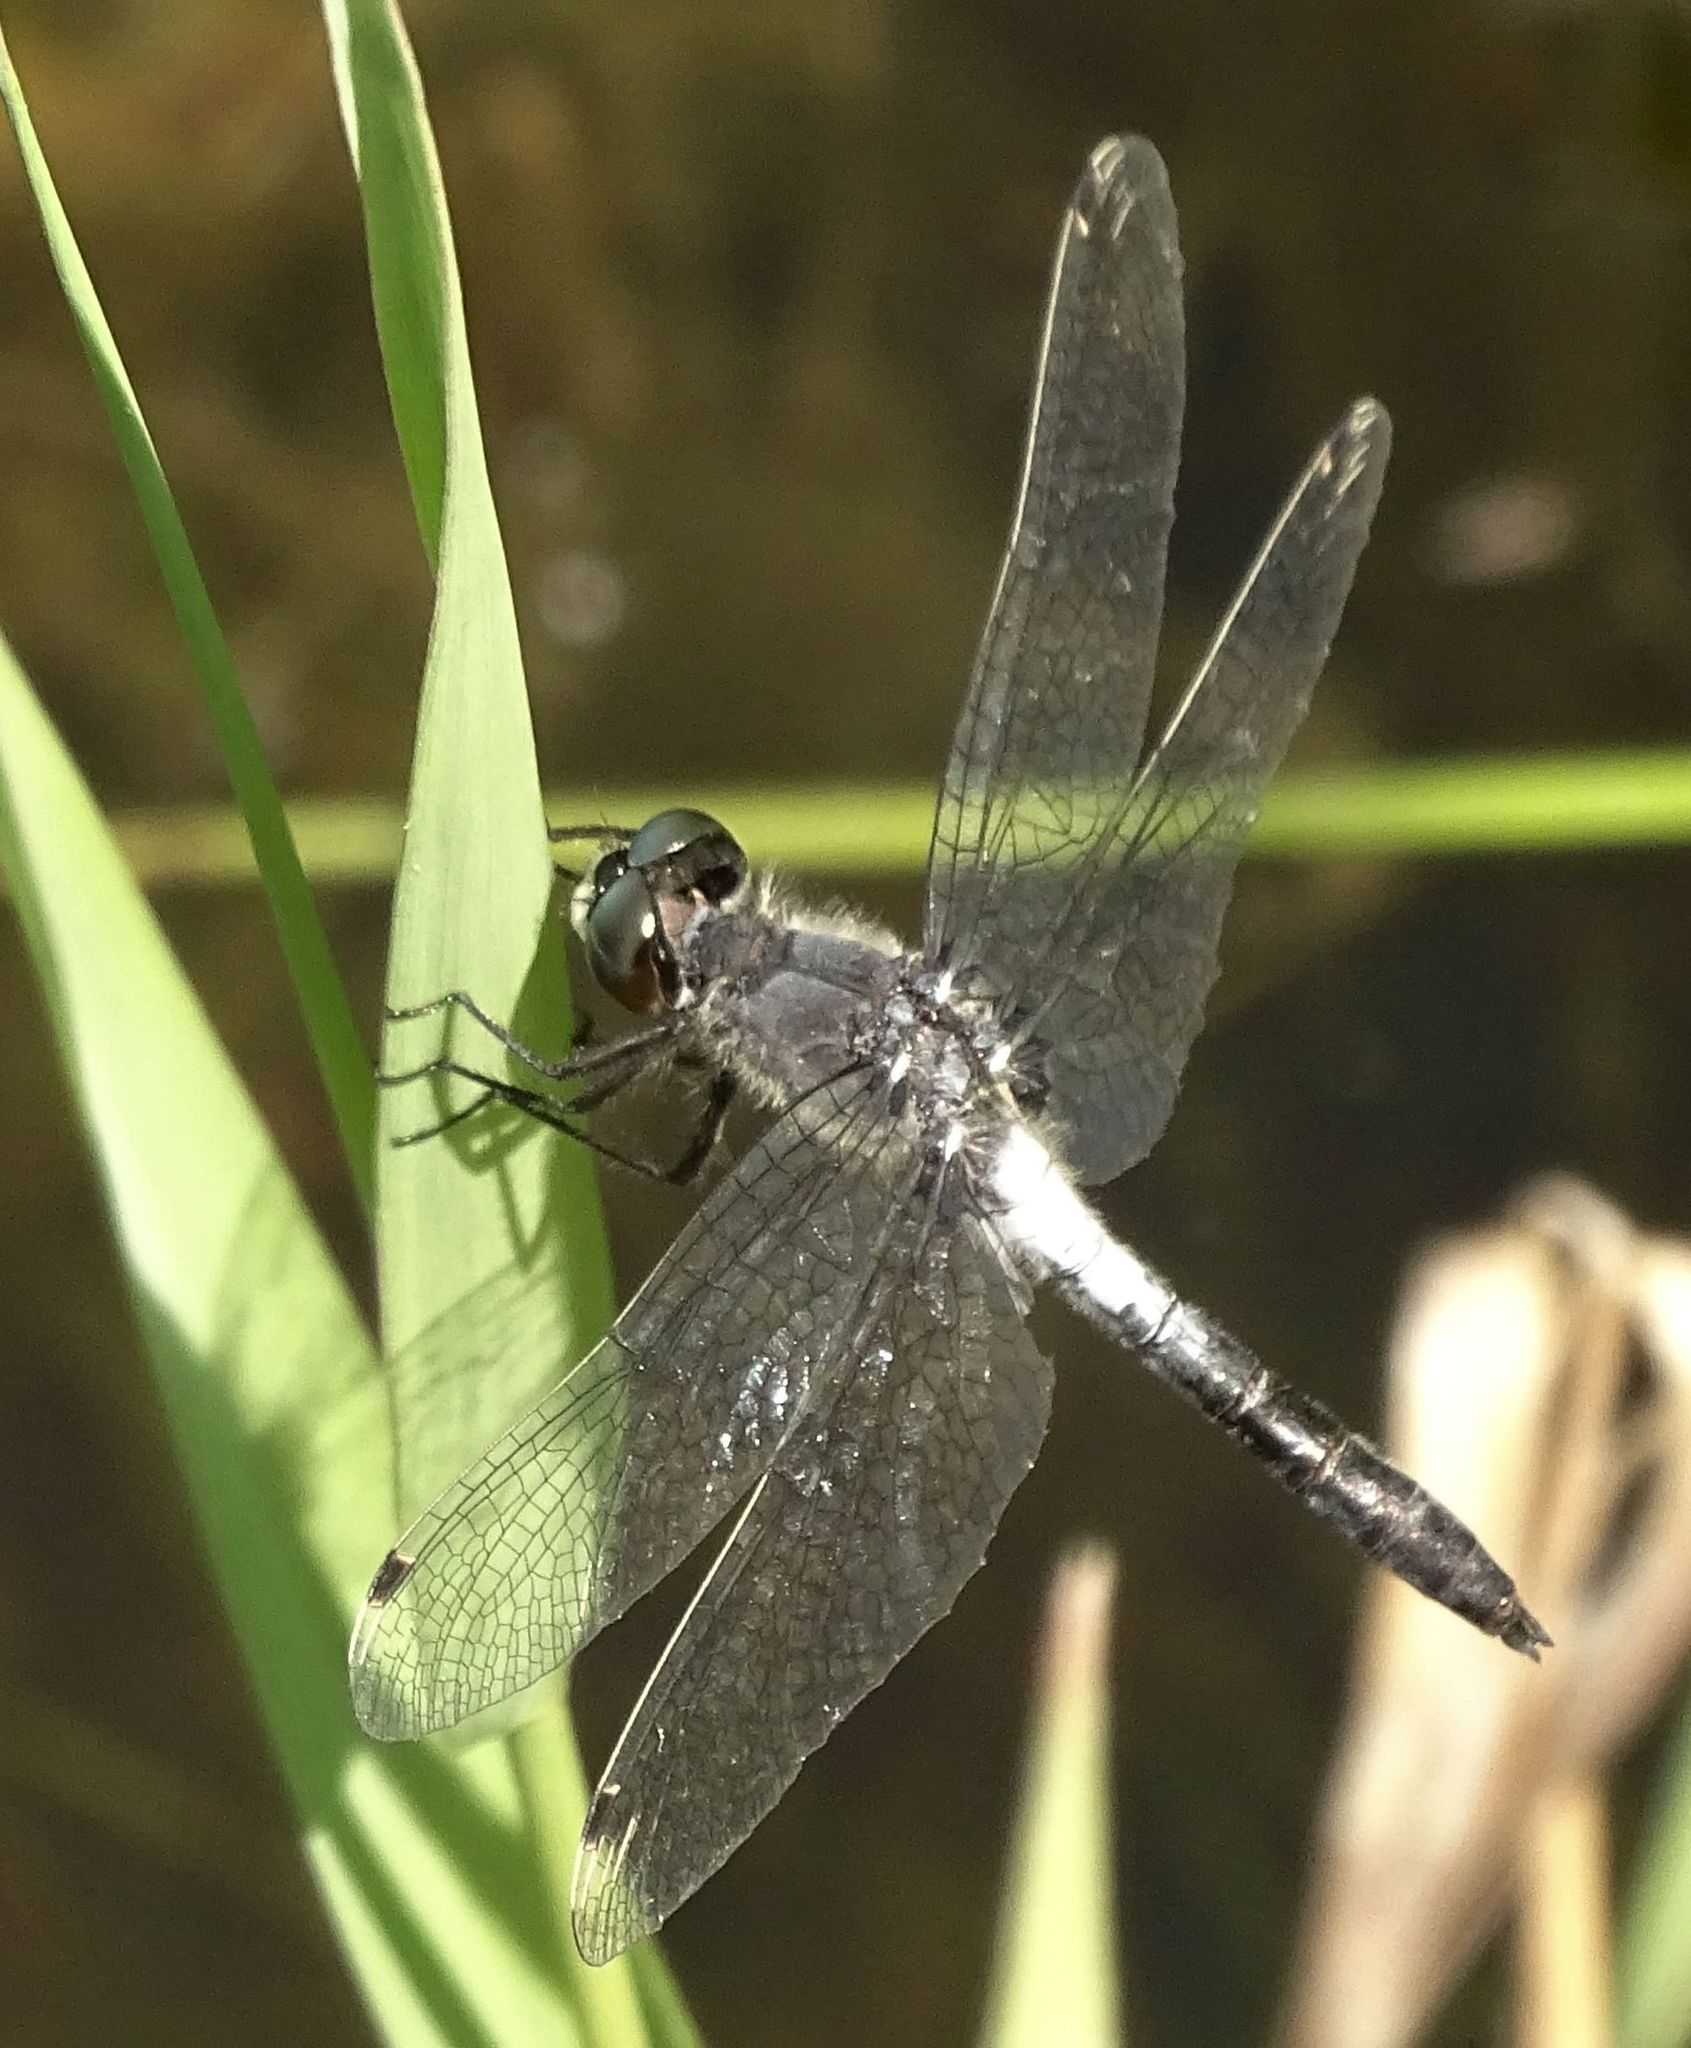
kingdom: Animalia
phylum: Arthropoda
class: Insecta
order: Odonata
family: Libellulidae
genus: Leucorrhinia
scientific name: Leucorrhinia frigida
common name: Frosted whiteface
